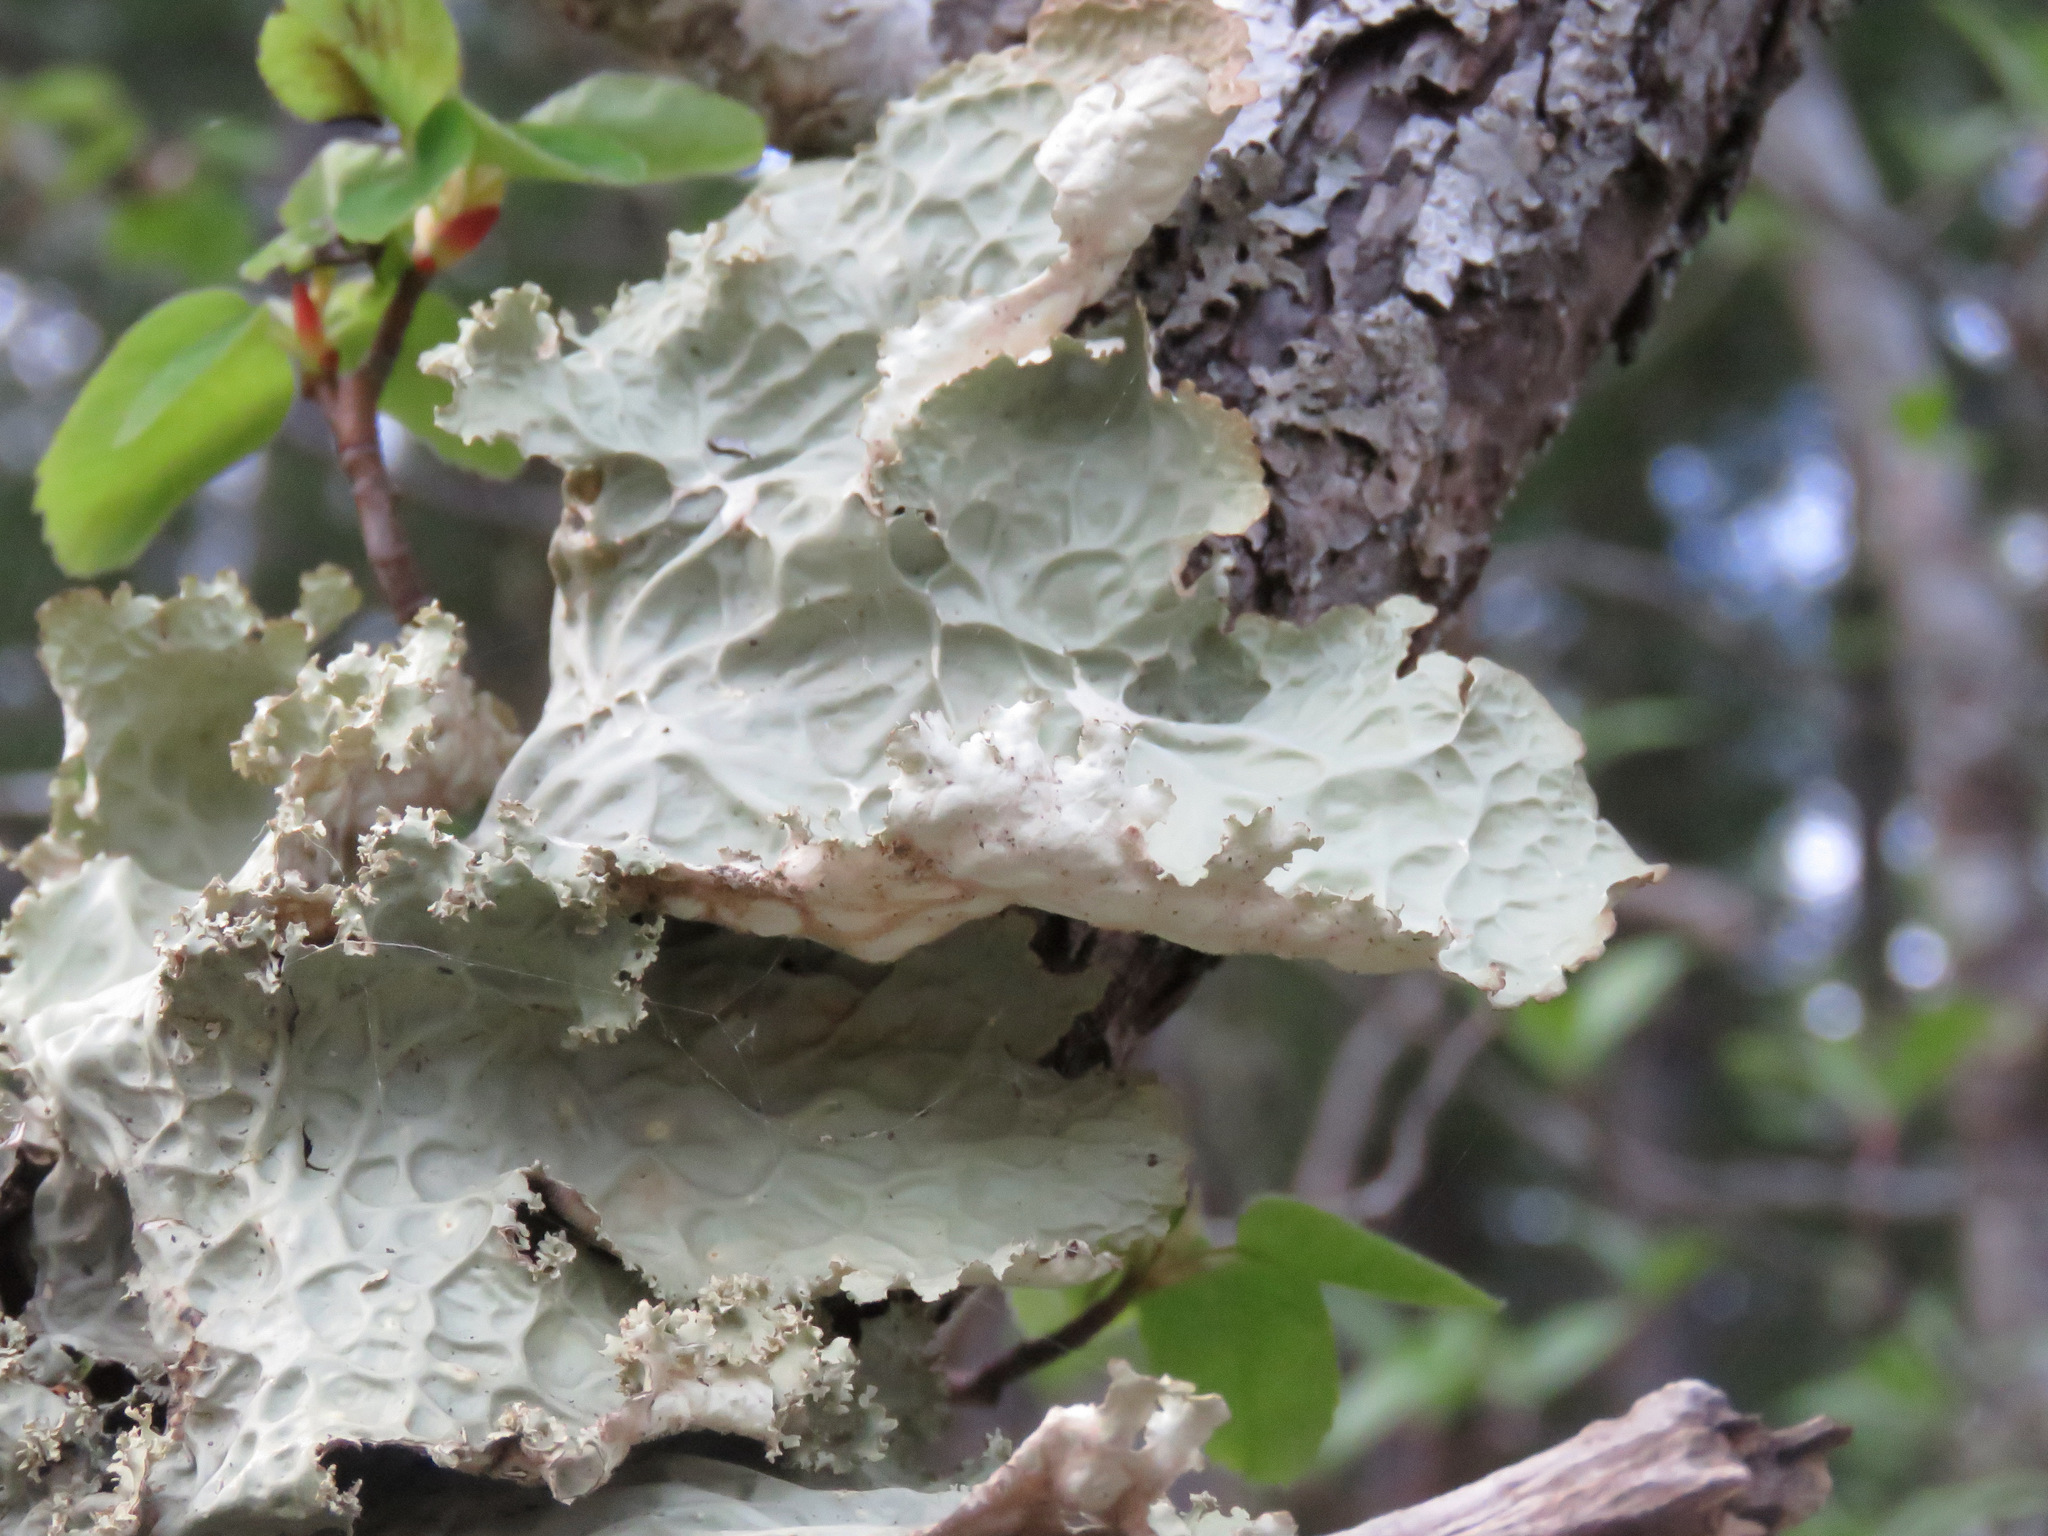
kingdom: Fungi
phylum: Ascomycota
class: Lecanoromycetes
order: Peltigerales
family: Lobariaceae
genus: Lobaria
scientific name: Lobaria oregana
